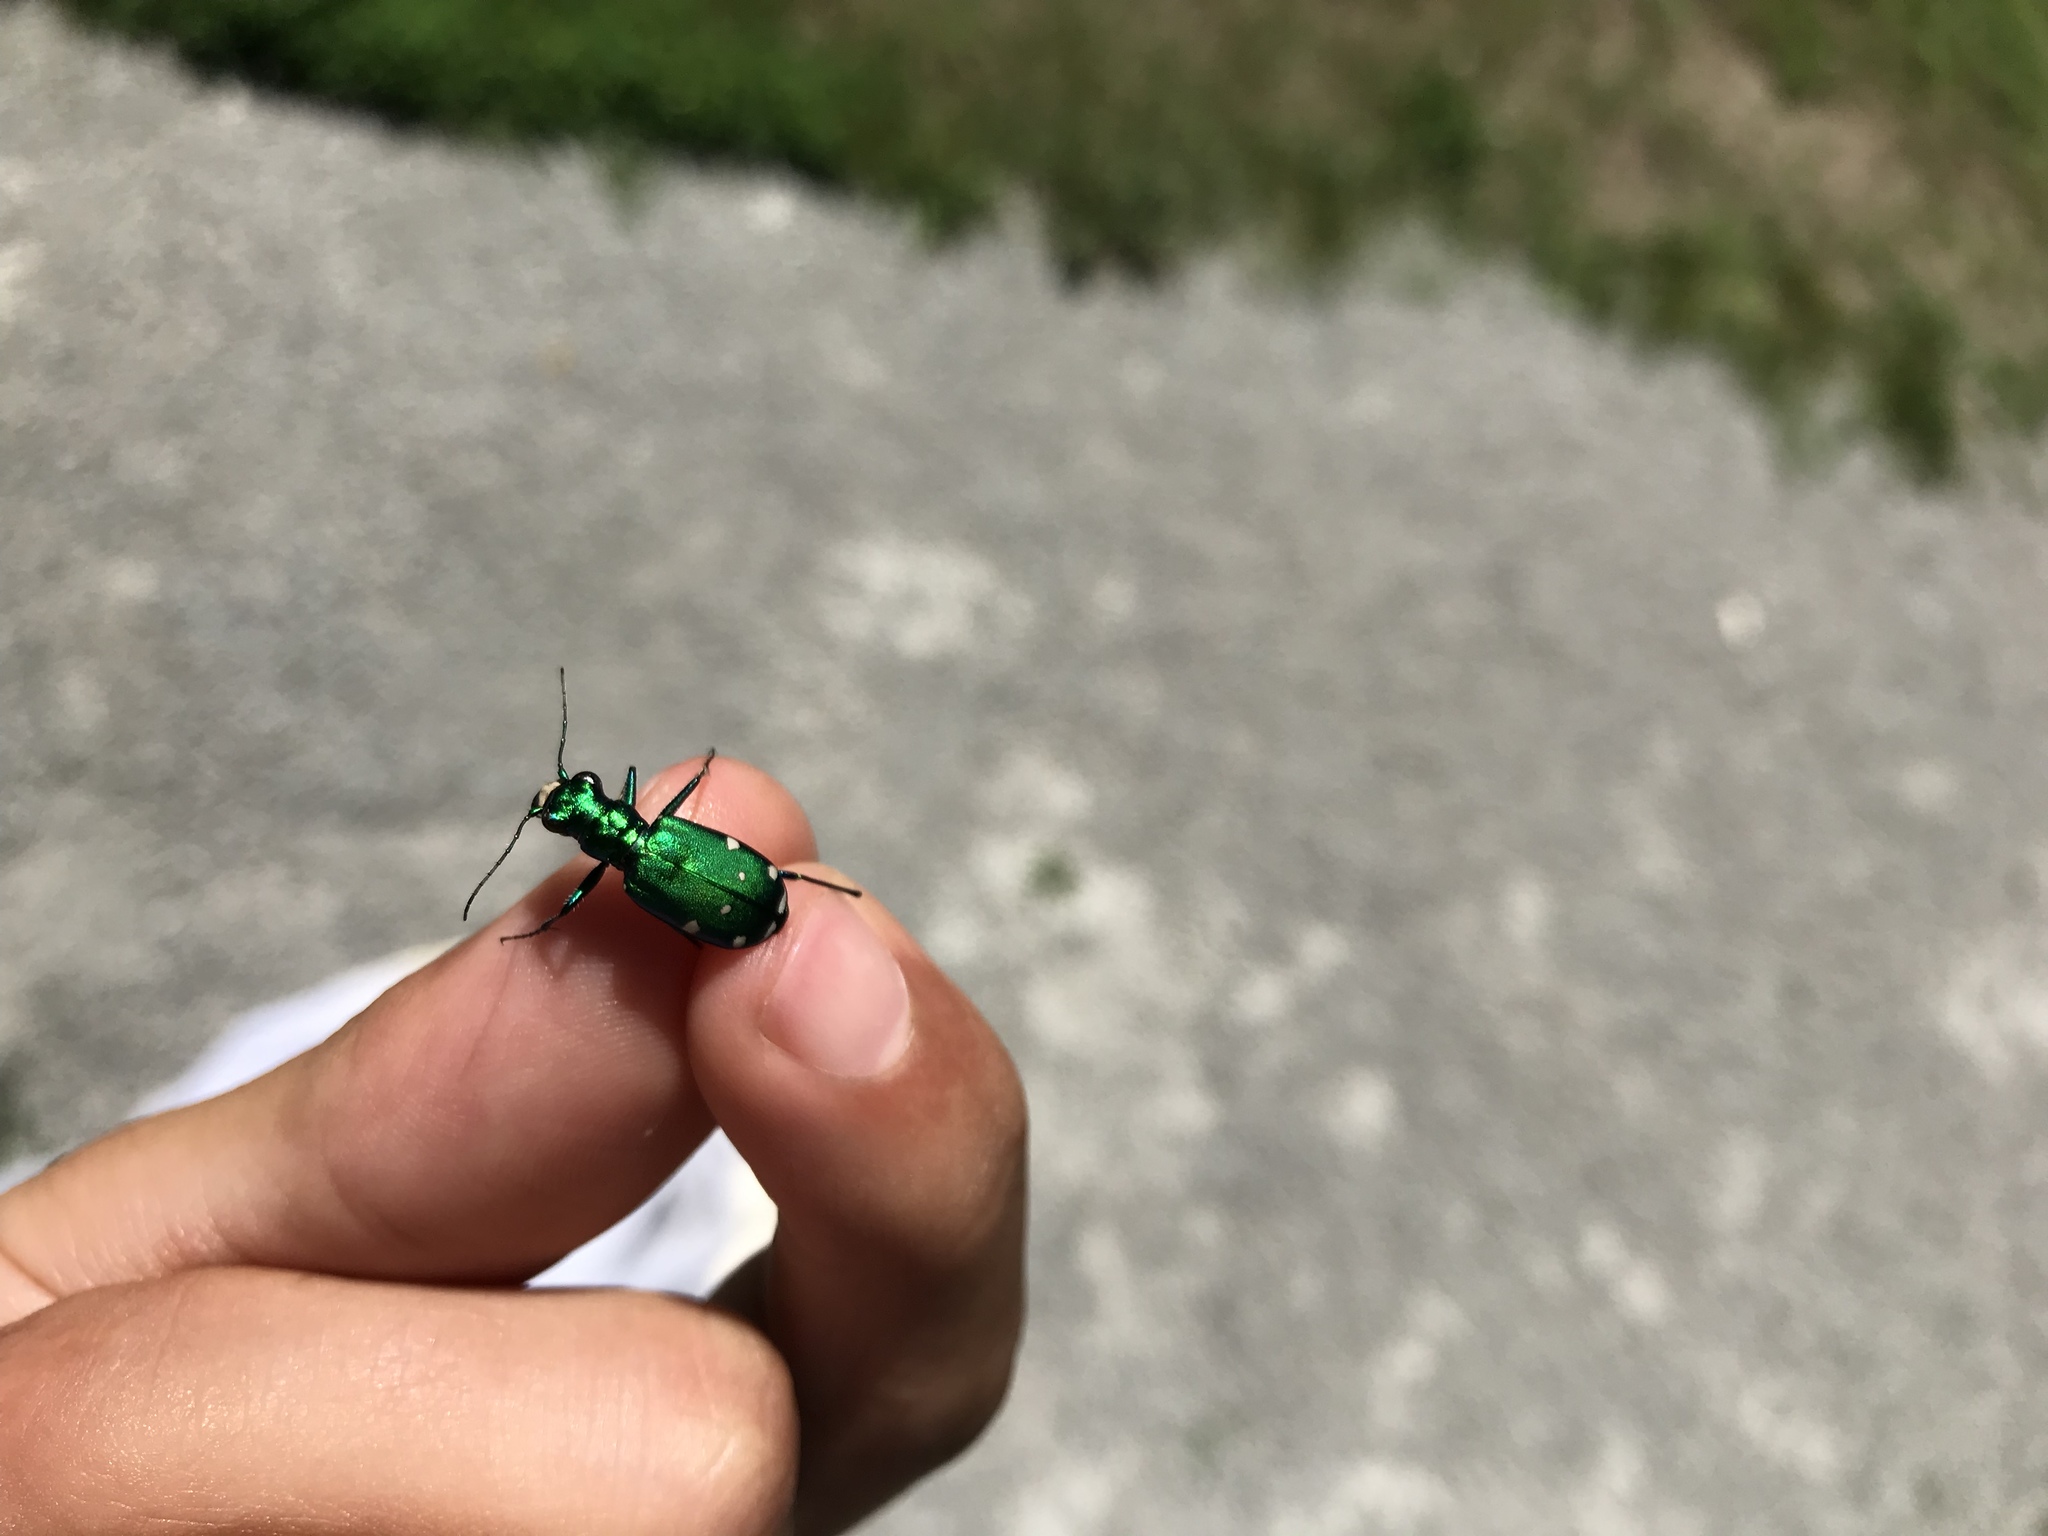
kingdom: Animalia
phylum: Arthropoda
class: Insecta
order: Coleoptera
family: Carabidae
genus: Cicindela
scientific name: Cicindela sexguttata
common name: Six-spotted tiger beetle
